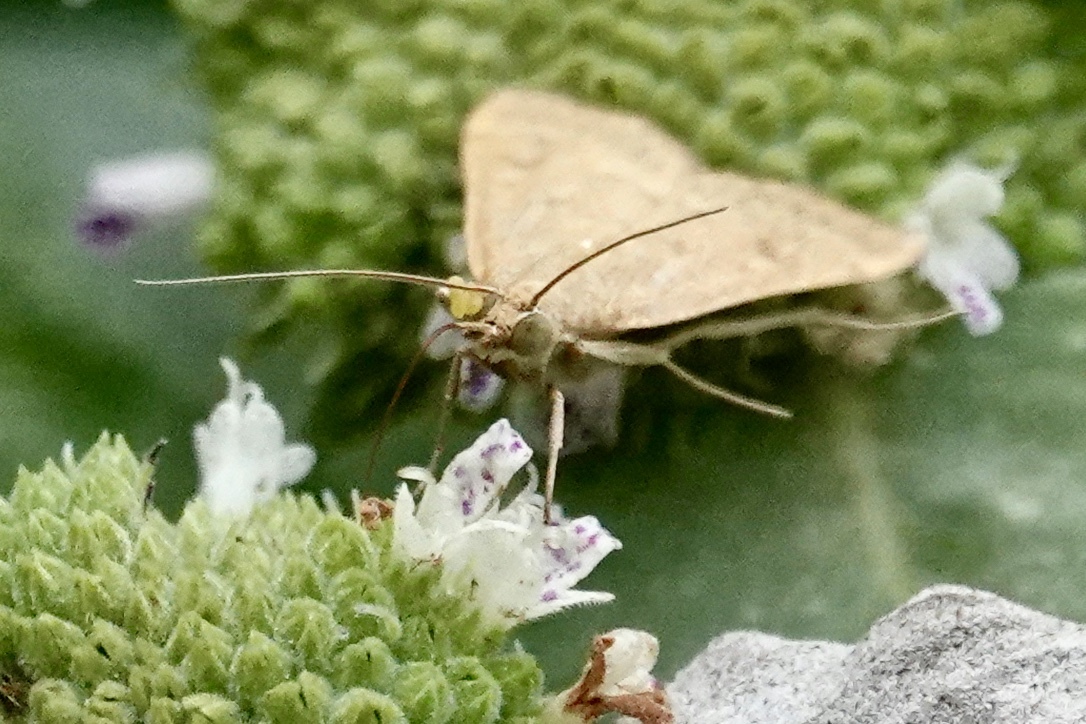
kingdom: Animalia
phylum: Arthropoda
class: Insecta
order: Lepidoptera
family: Crambidae
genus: Achyra
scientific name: Achyra rantalis
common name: Garden webworm
